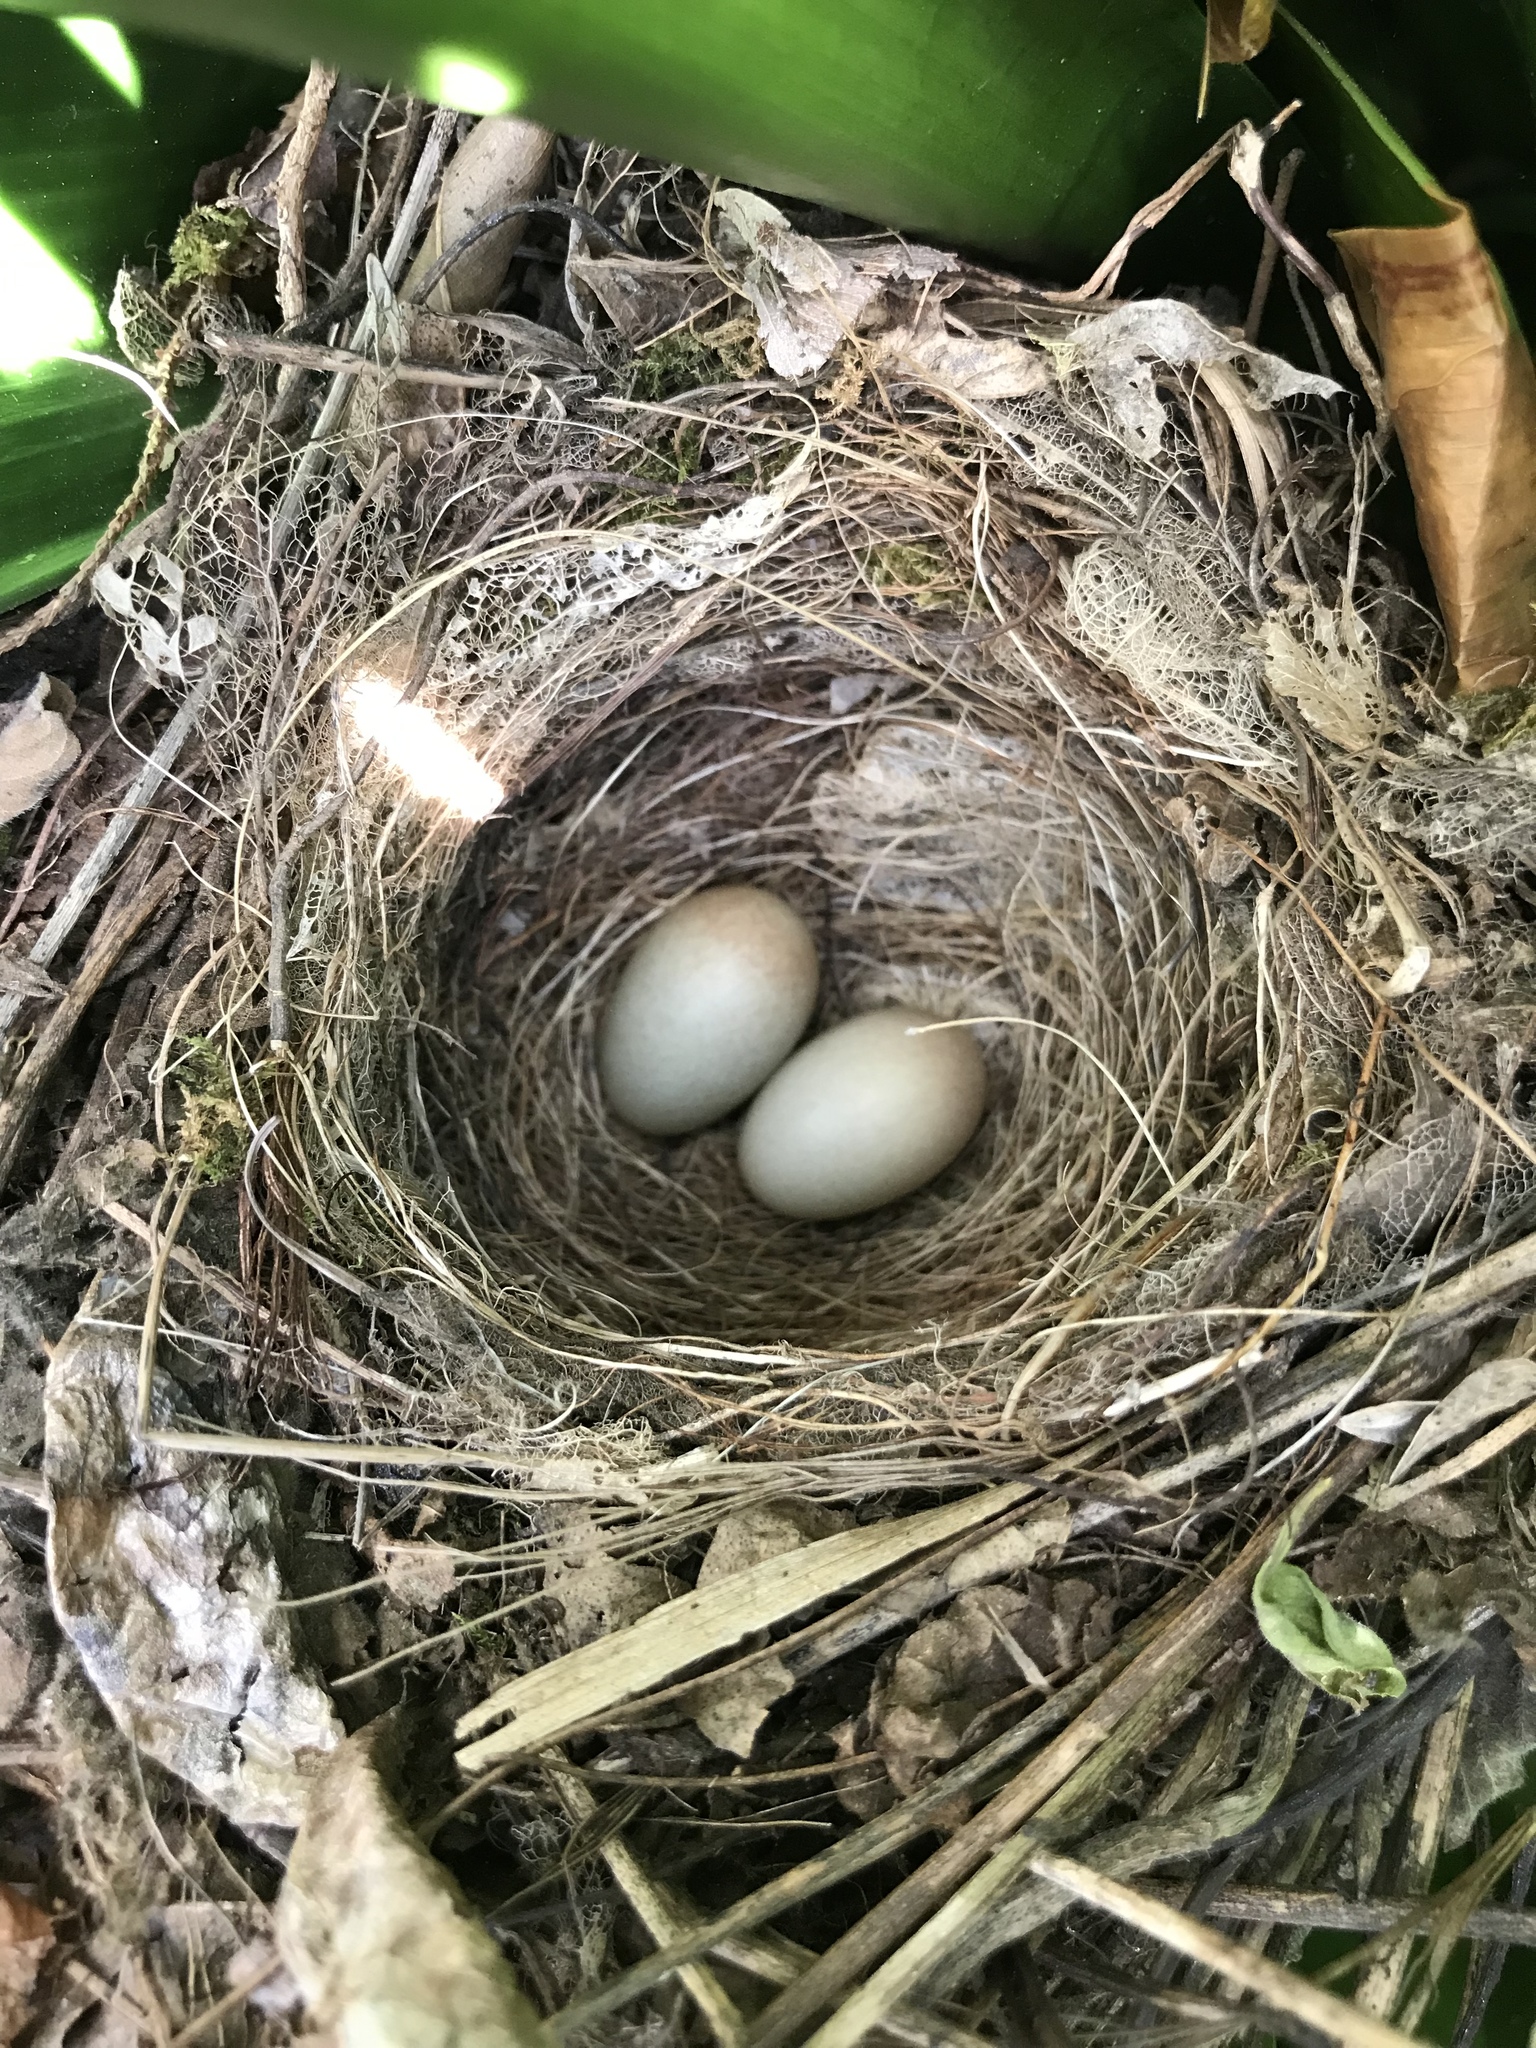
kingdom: Animalia
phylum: Chordata
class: Aves
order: Passeriformes
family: Muscicapidae
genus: Cossypha
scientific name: Cossypha caffra
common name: Cape robin-chat
